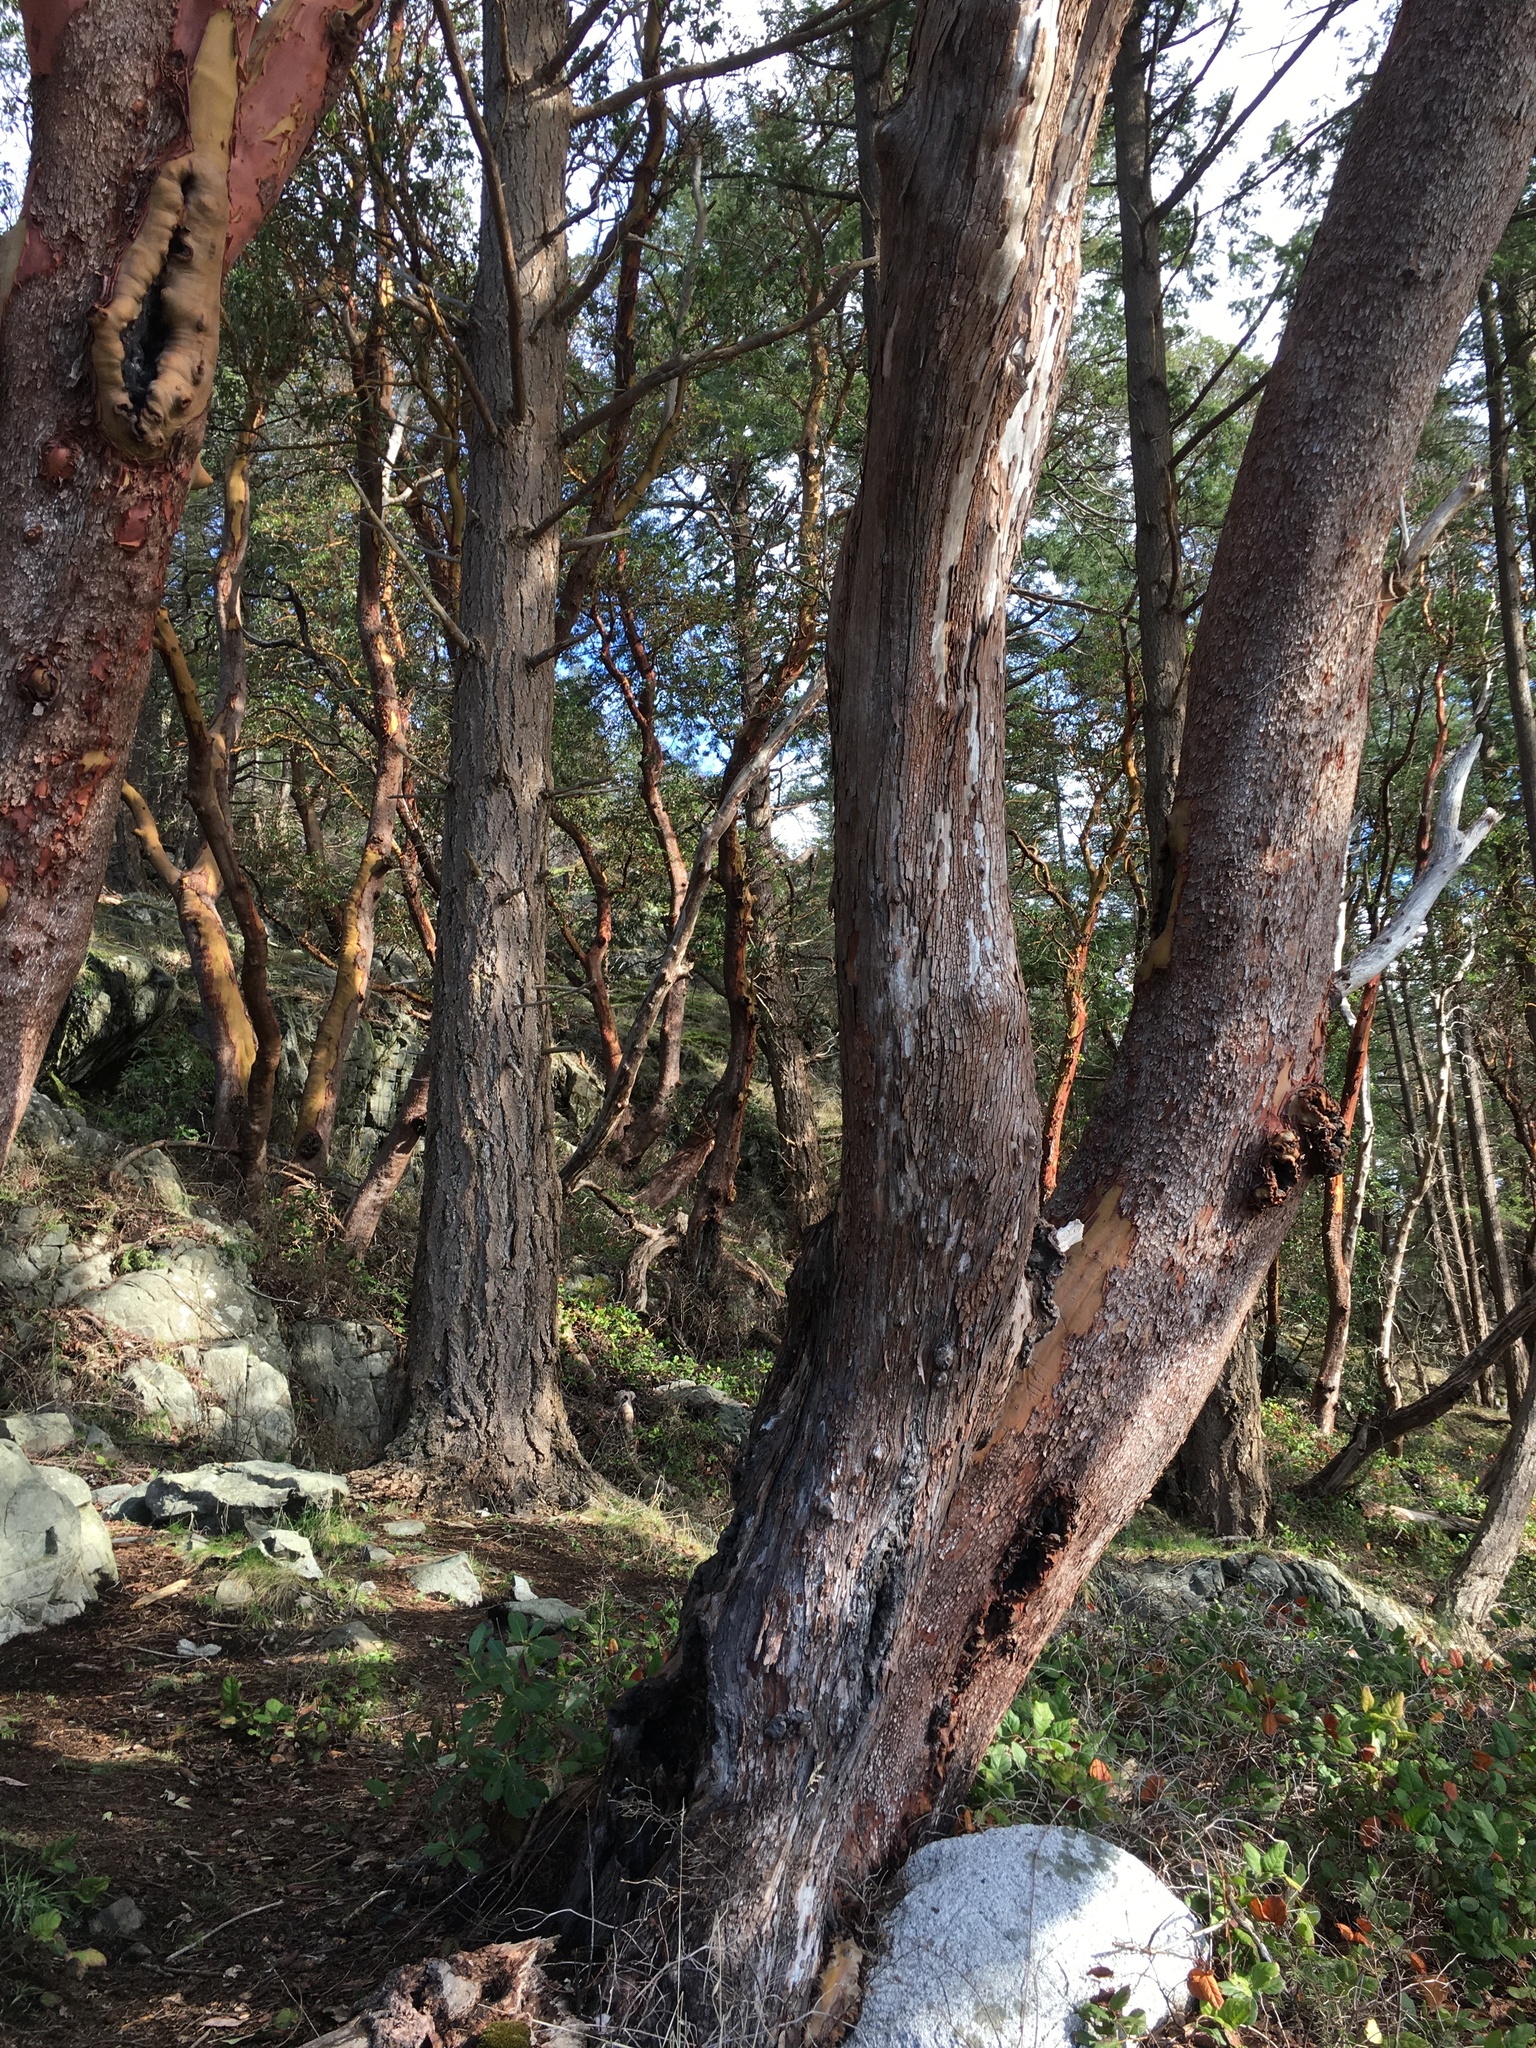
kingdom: Plantae
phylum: Tracheophyta
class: Magnoliopsida
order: Ericales
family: Ericaceae
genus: Arbutus
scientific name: Arbutus menziesii
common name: Pacific madrone
